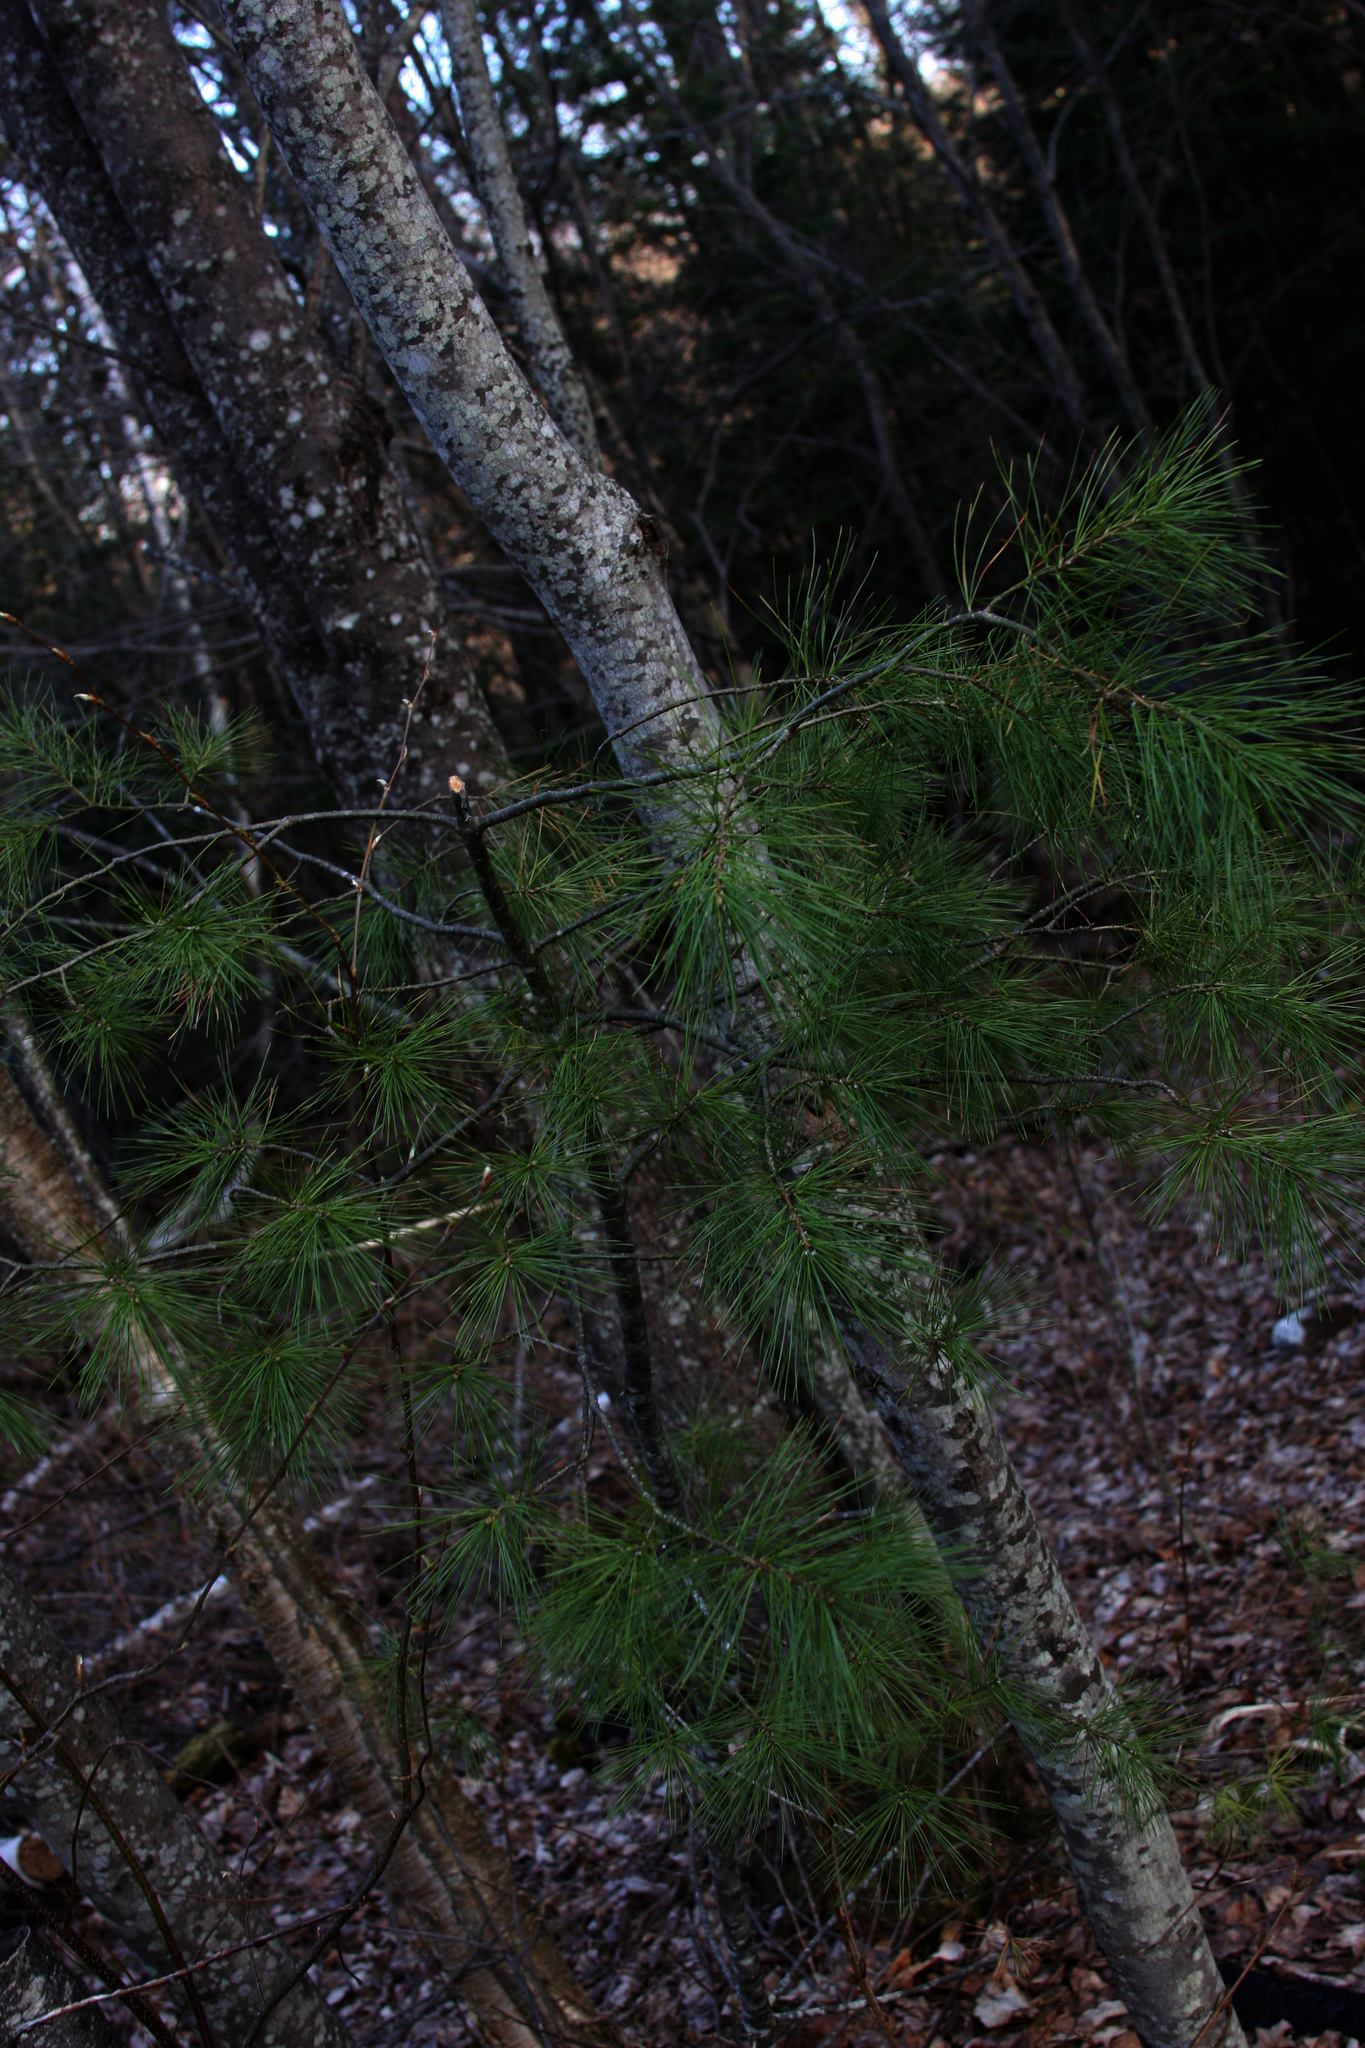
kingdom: Plantae
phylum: Tracheophyta
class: Pinopsida
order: Pinales
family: Pinaceae
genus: Pinus
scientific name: Pinus strobus
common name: Weymouth pine
